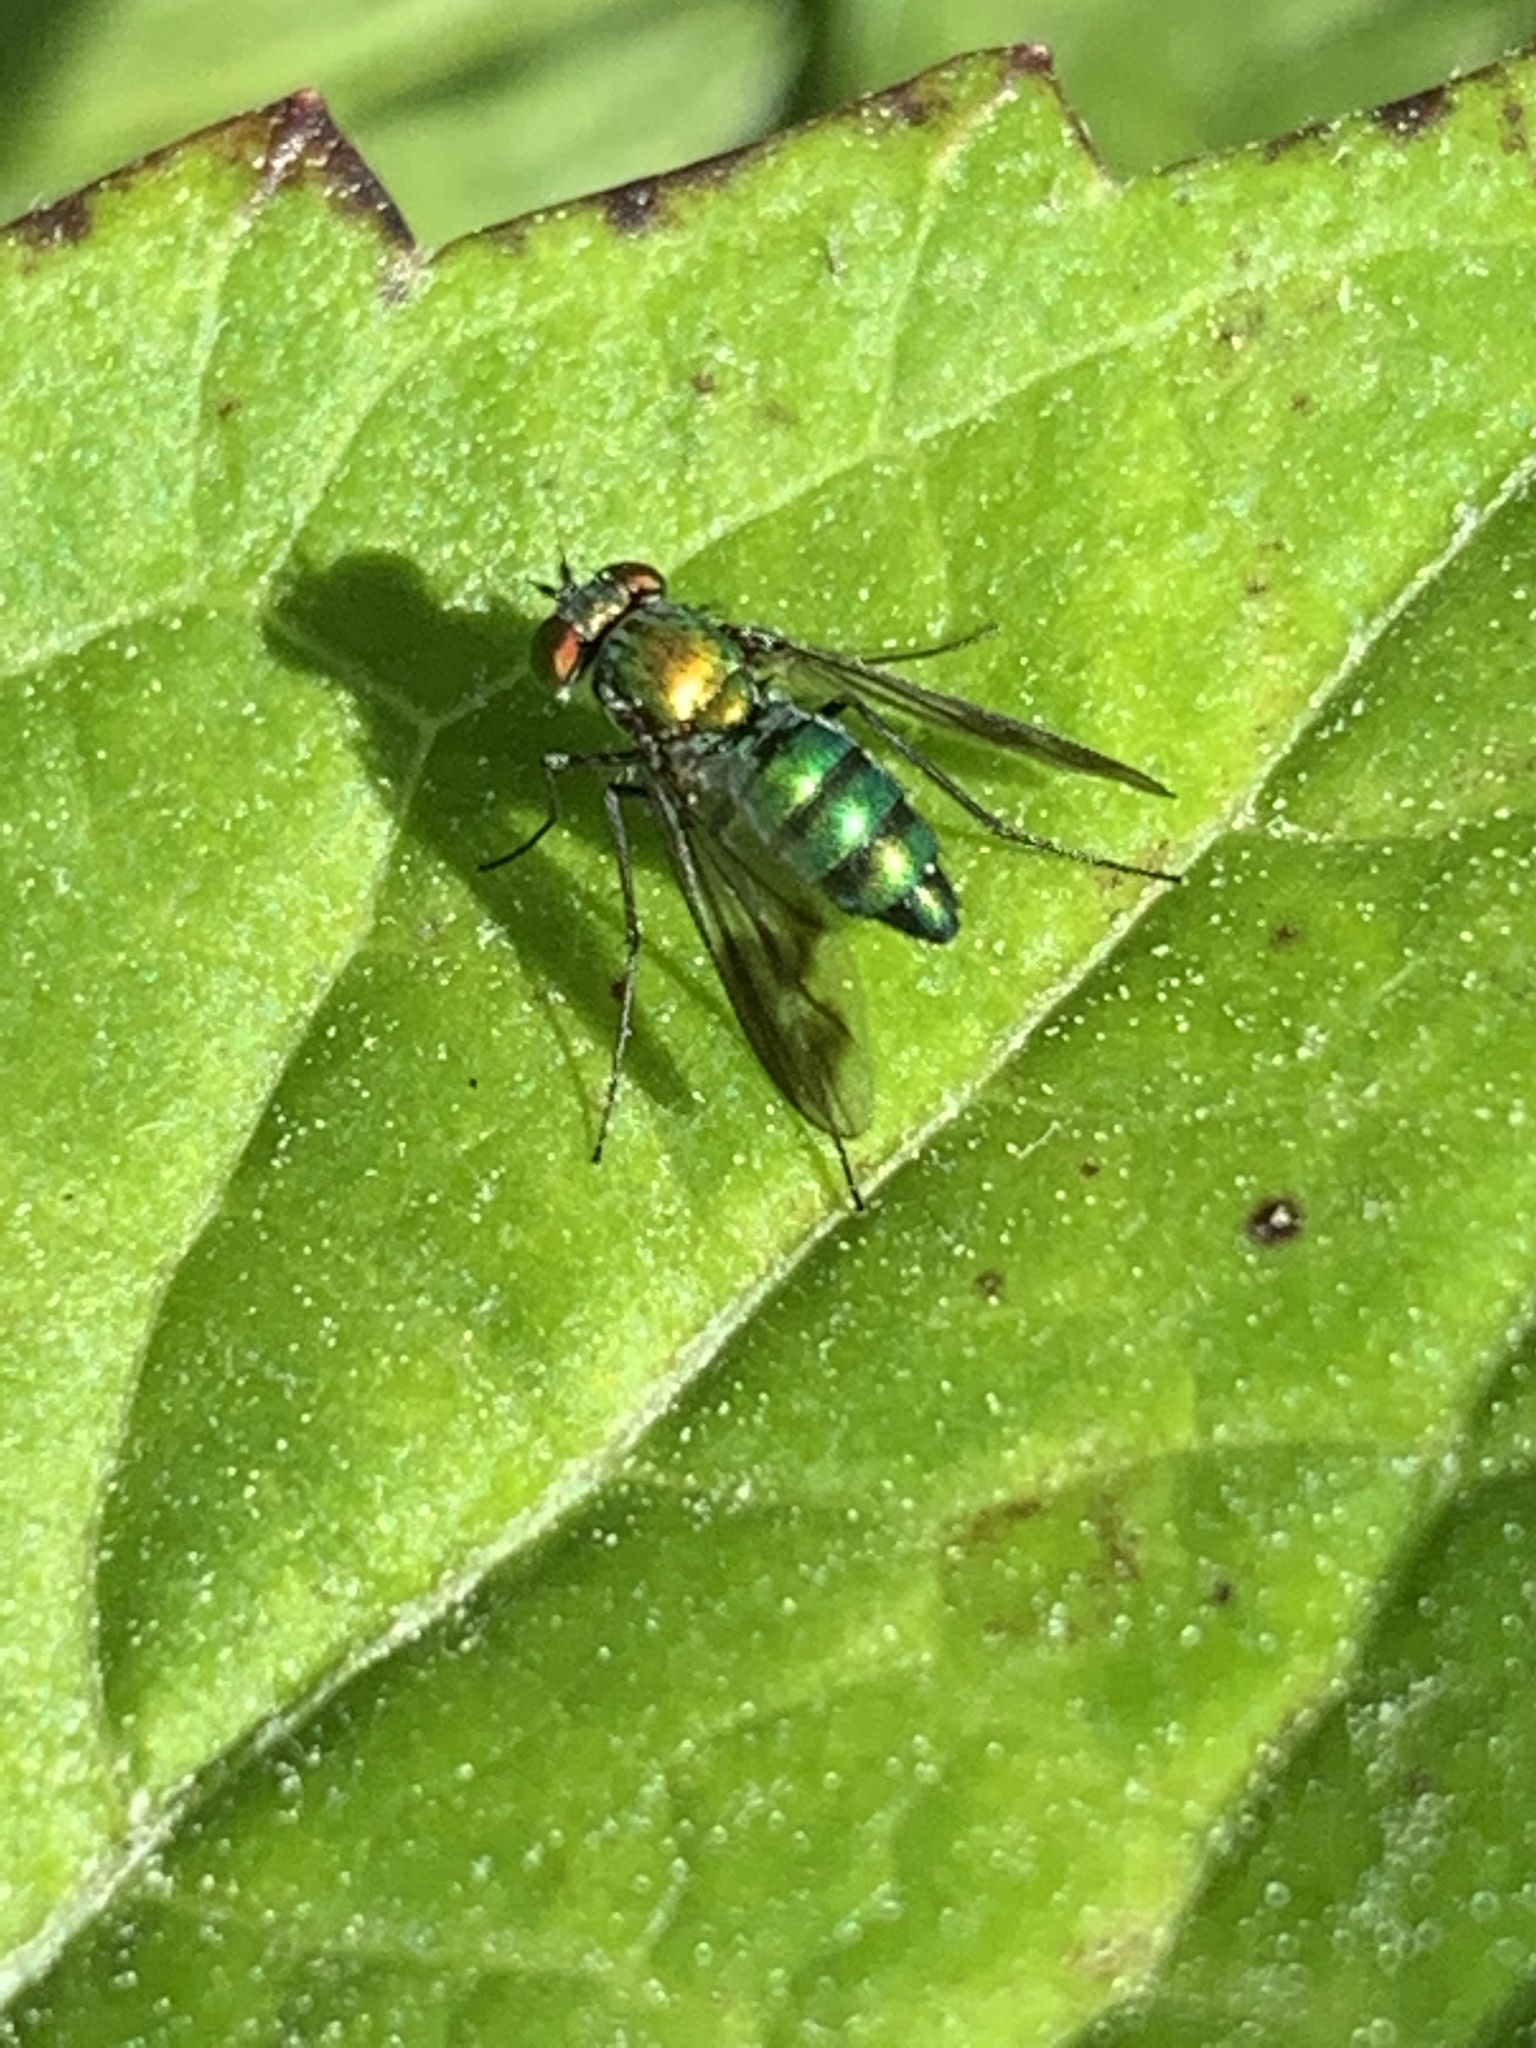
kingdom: Animalia
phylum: Arthropoda
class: Insecta
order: Diptera
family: Dolichopodidae
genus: Condylostylus
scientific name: Condylostylus patibulatus
